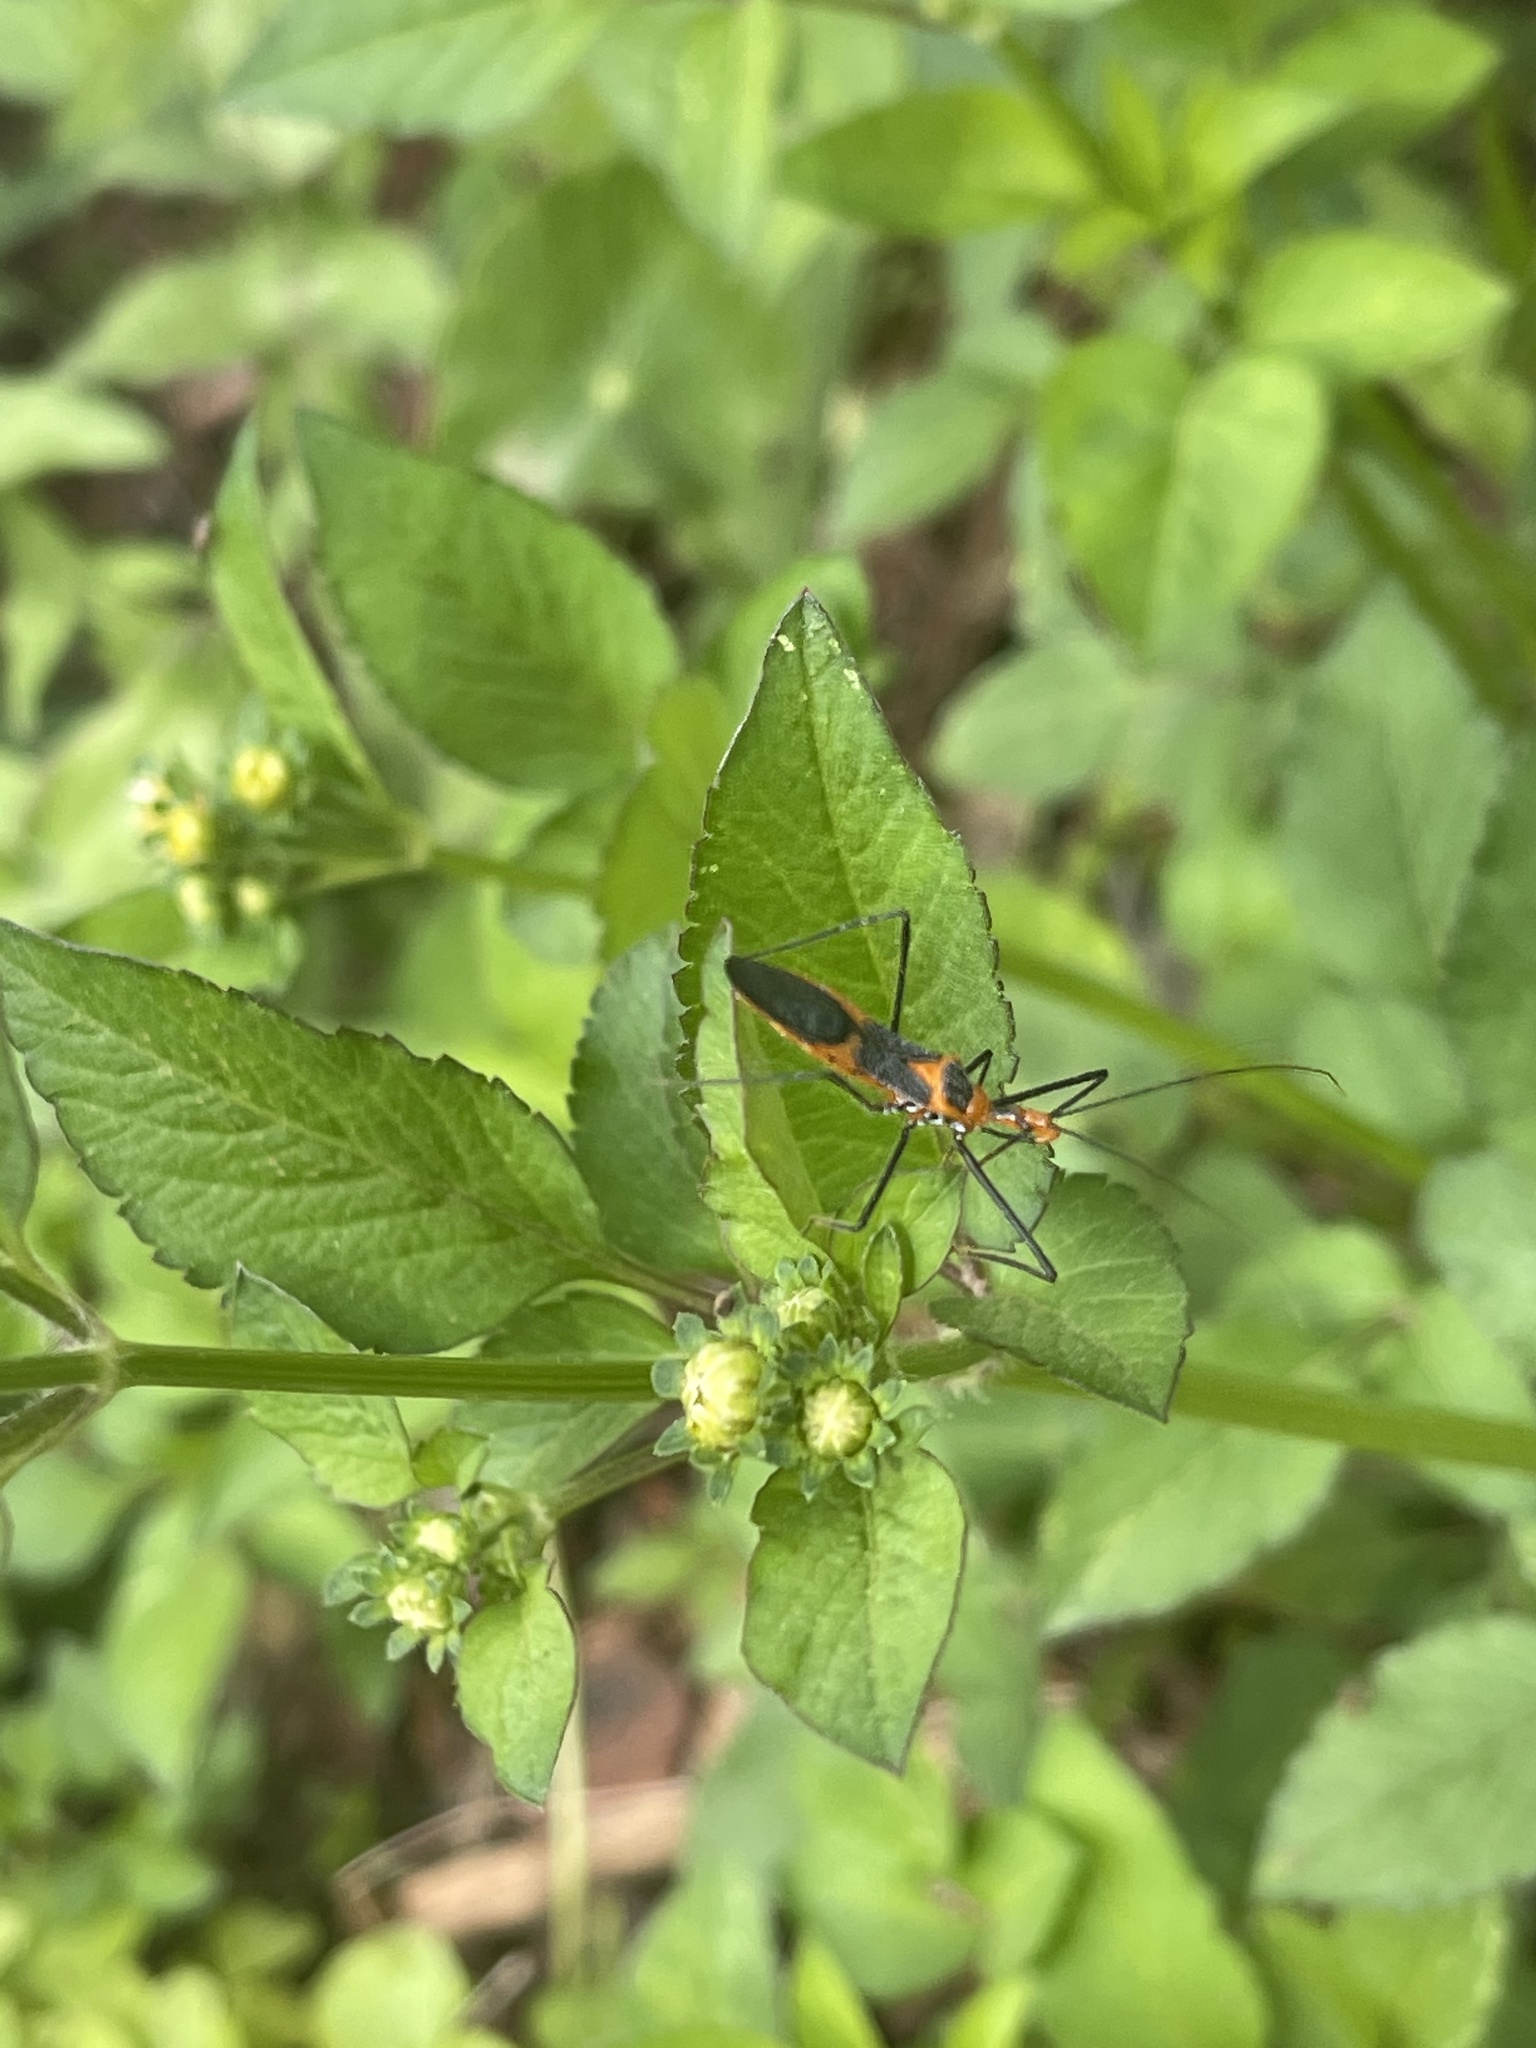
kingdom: Animalia
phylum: Arthropoda
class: Insecta
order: Hemiptera
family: Reduviidae
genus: Zelus
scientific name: Zelus longipes
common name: Milkweed assassin bug
